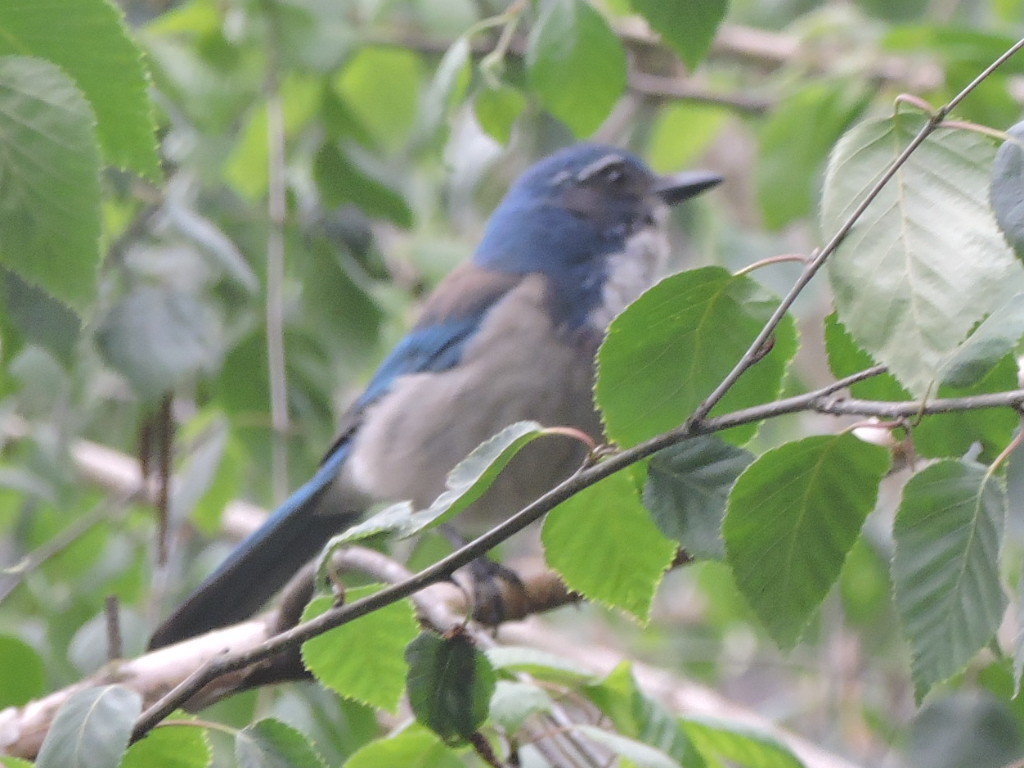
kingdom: Animalia
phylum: Chordata
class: Aves
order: Passeriformes
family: Corvidae
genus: Aphelocoma
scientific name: Aphelocoma californica
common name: California scrub-jay
